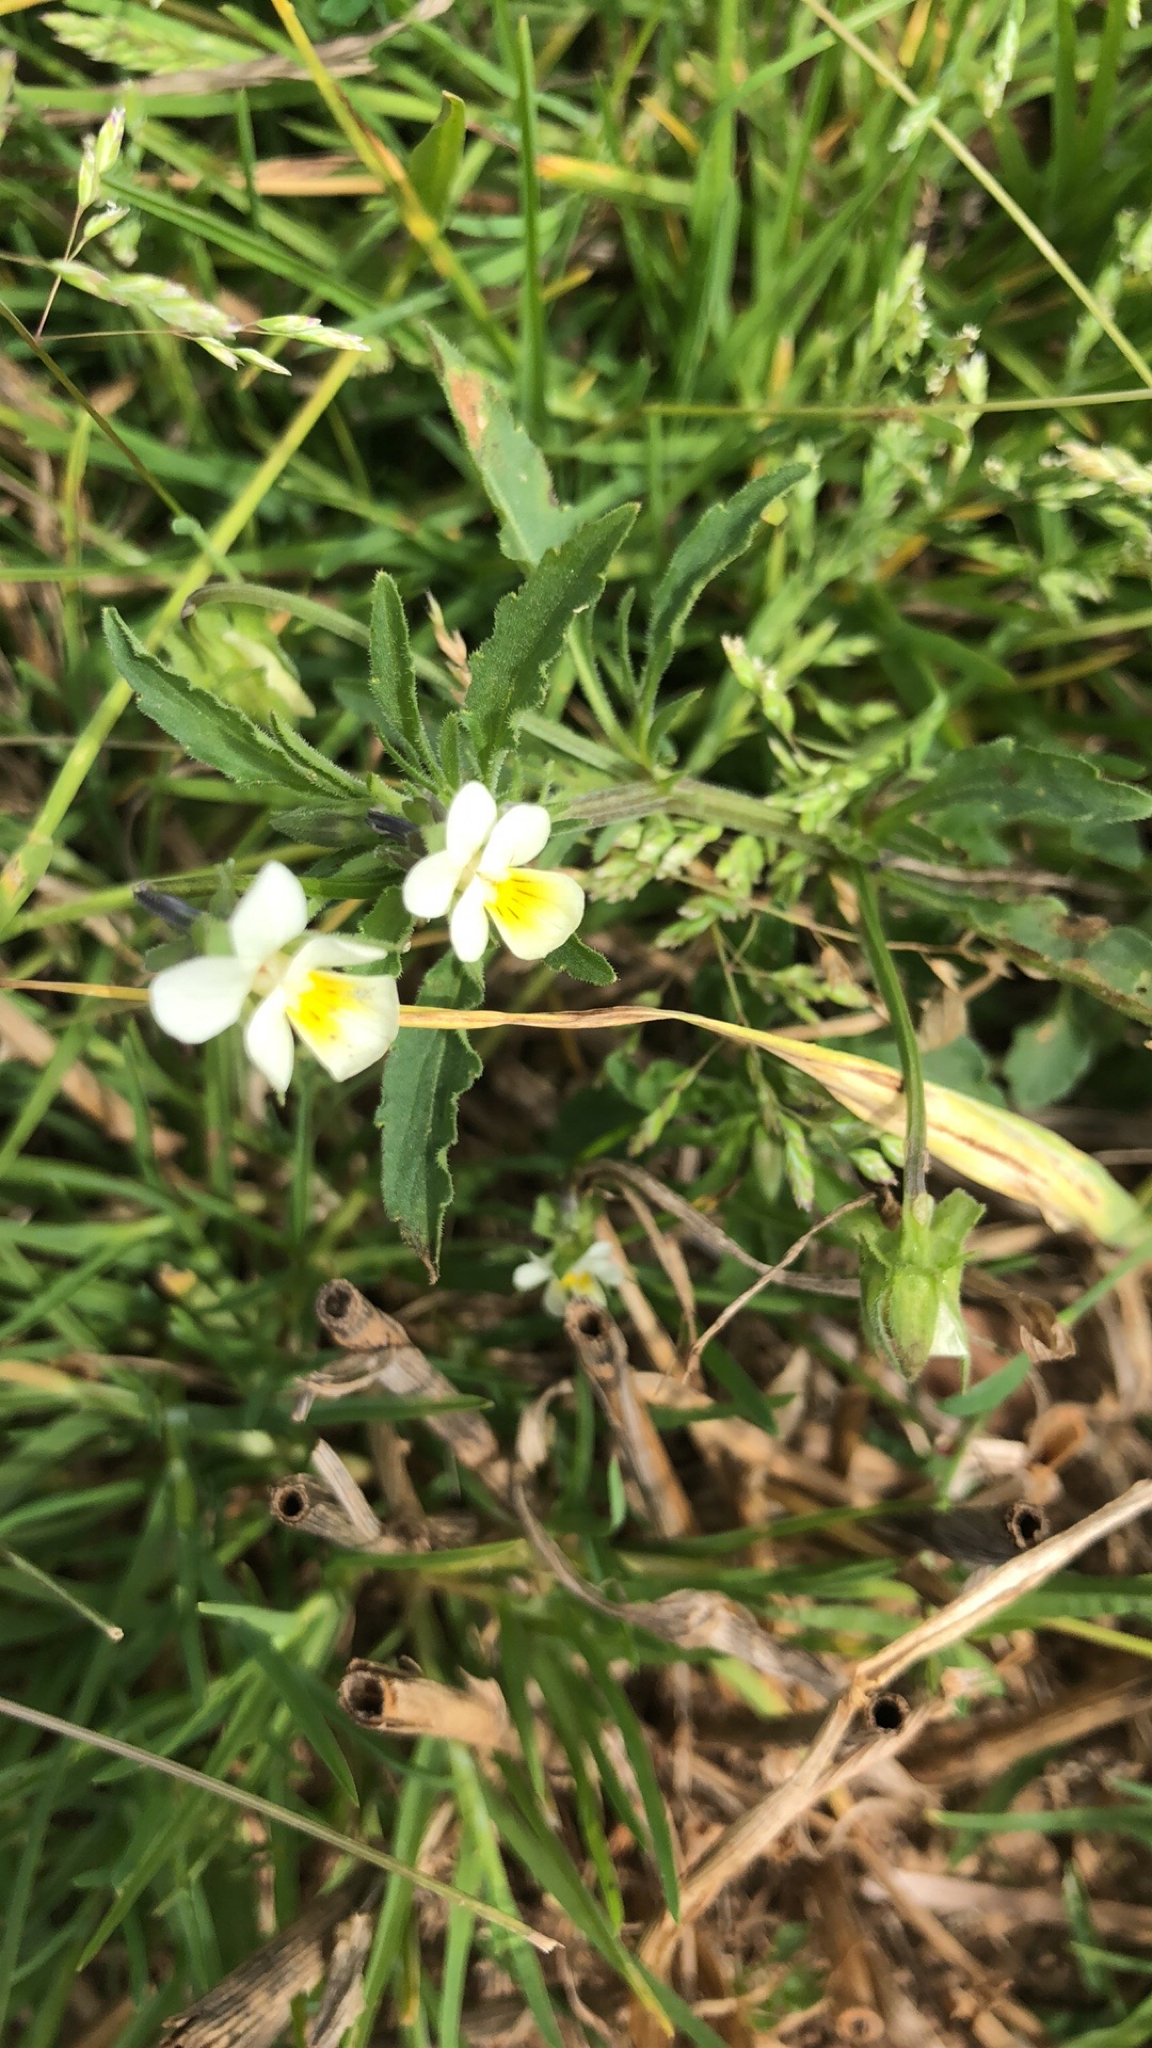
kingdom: Plantae
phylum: Tracheophyta
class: Magnoliopsida
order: Malpighiales
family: Violaceae
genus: Viola
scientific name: Viola arvensis
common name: Field pansy
